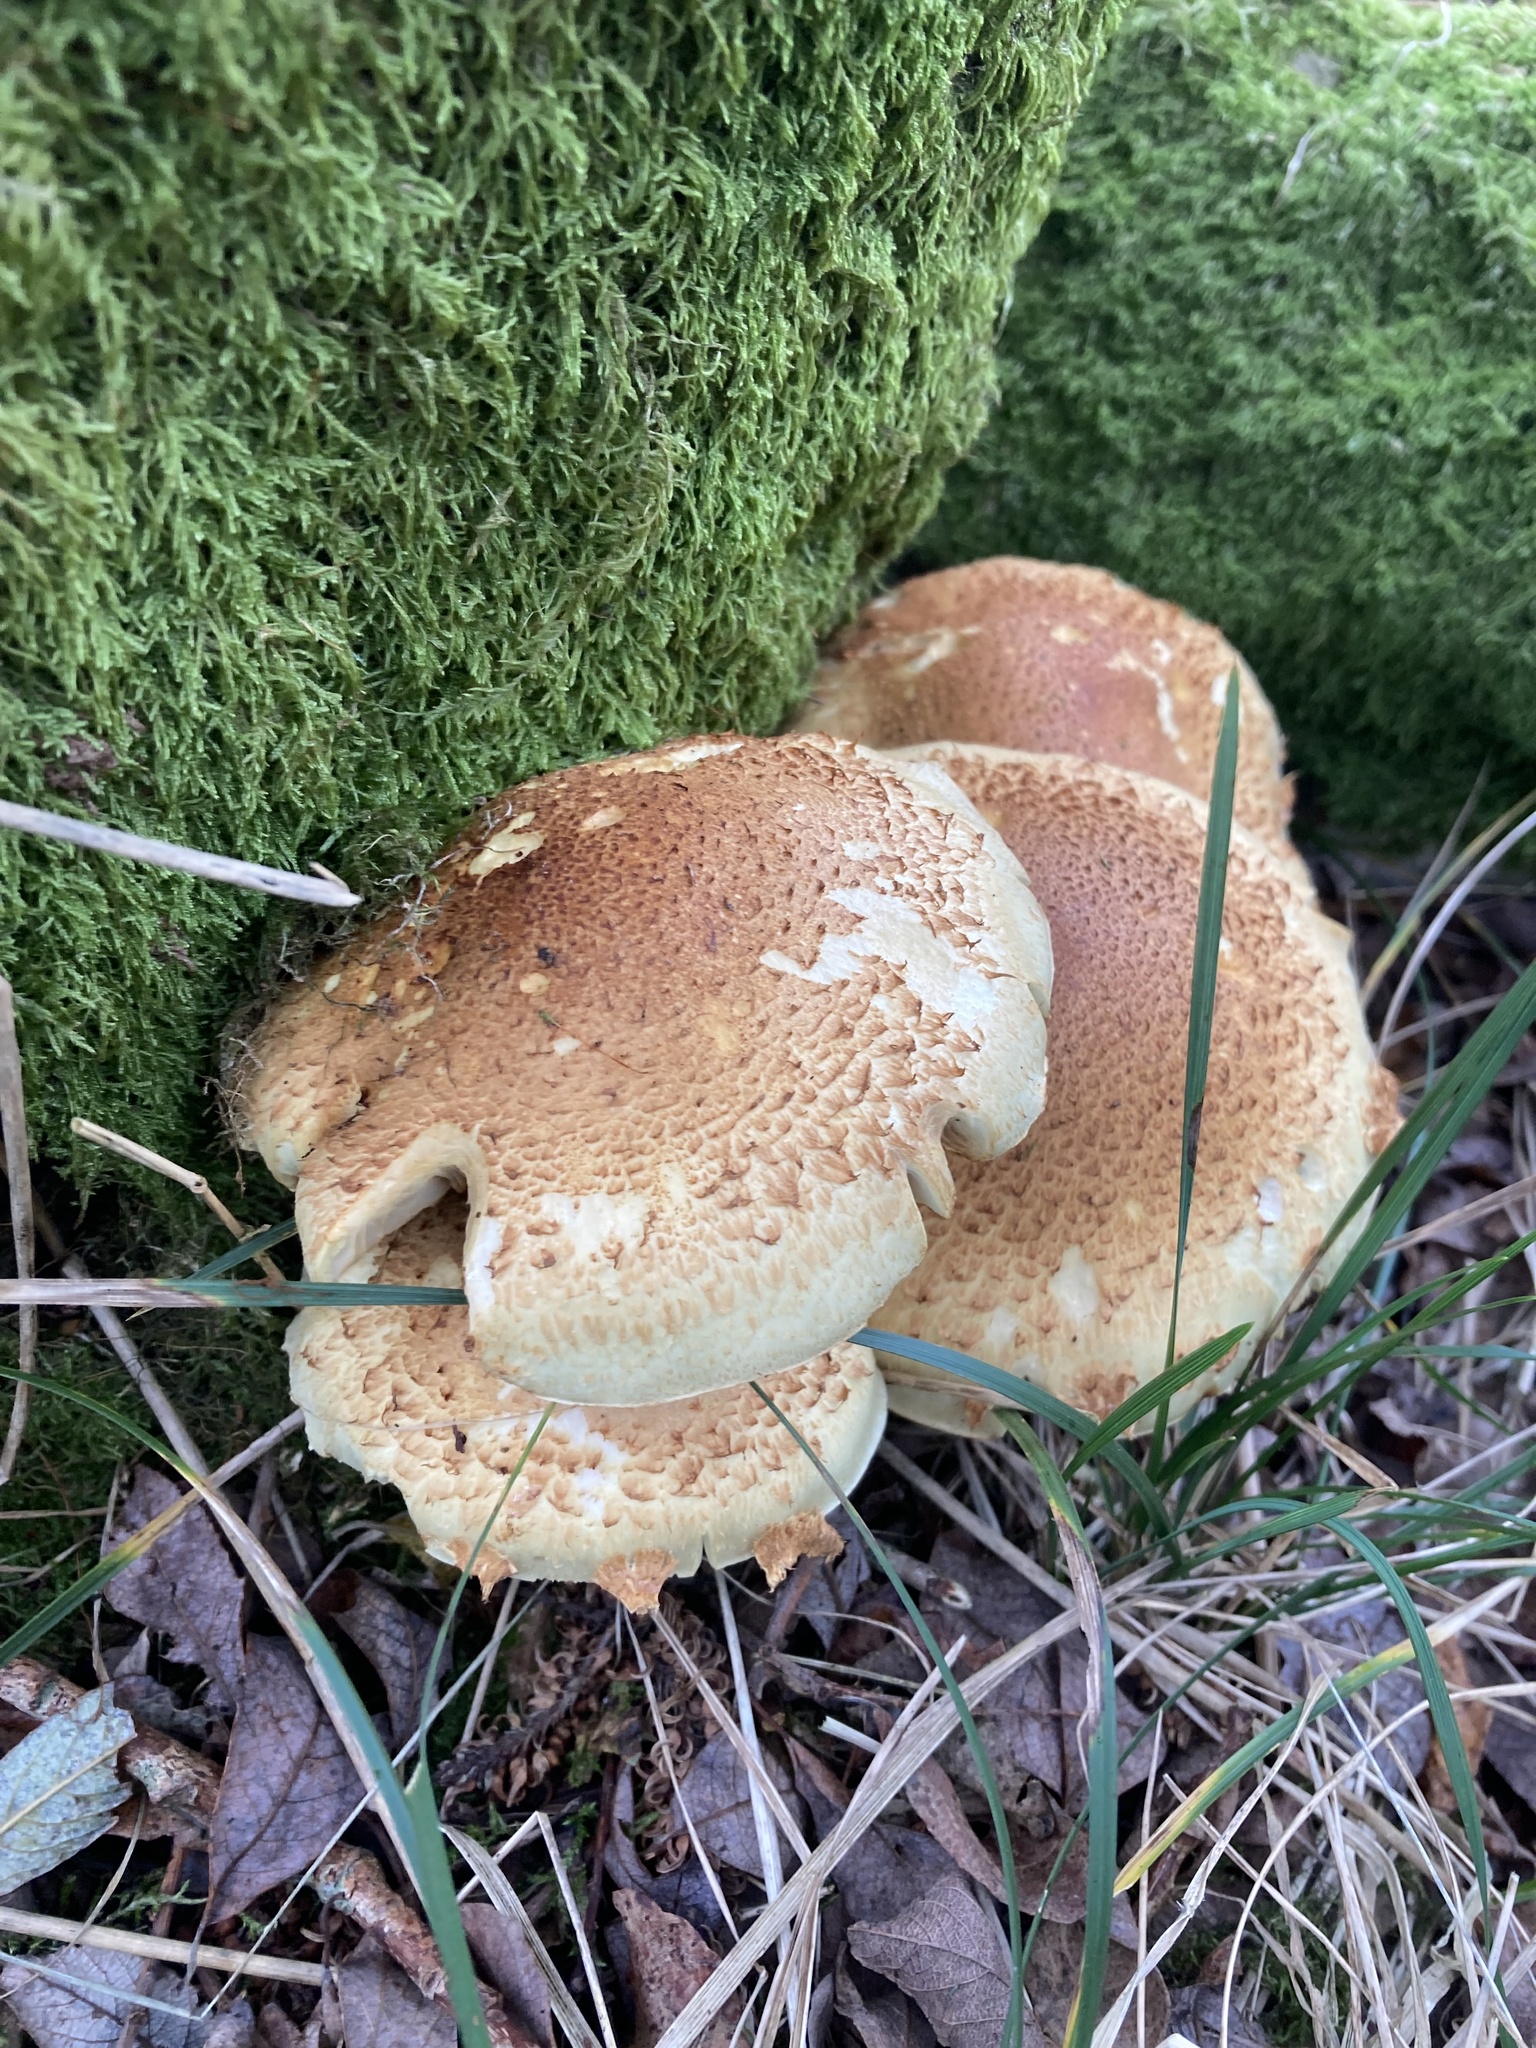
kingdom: Fungi
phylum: Basidiomycota
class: Agaricomycetes
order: Agaricales
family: Strophariaceae
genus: Pholiota
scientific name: Pholiota squarrosa
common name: Shaggy pholiota
